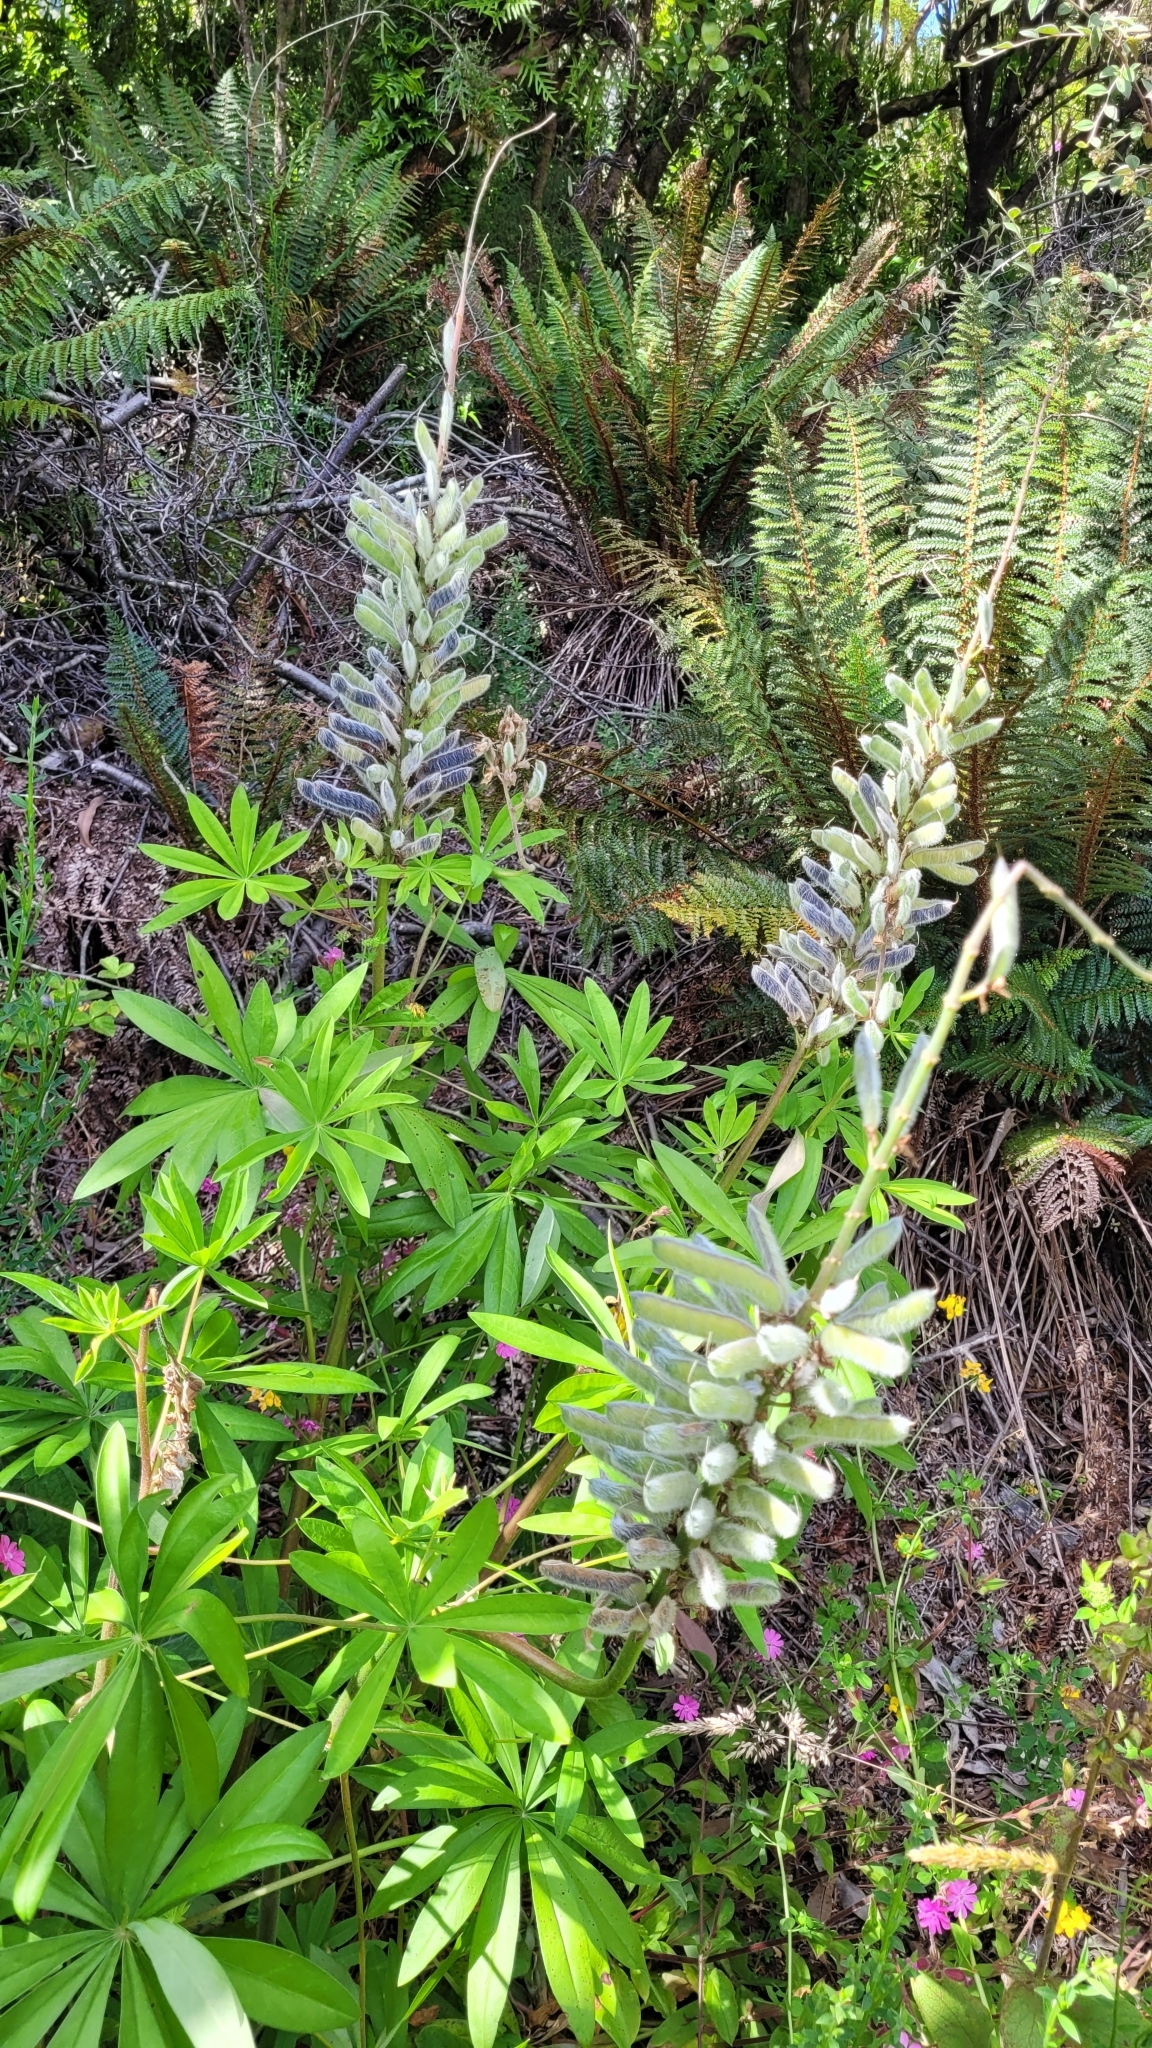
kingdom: Plantae
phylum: Tracheophyta
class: Magnoliopsida
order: Fabales
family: Fabaceae
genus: Lupinus
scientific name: Lupinus polyphyllus
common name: Garden lupin
